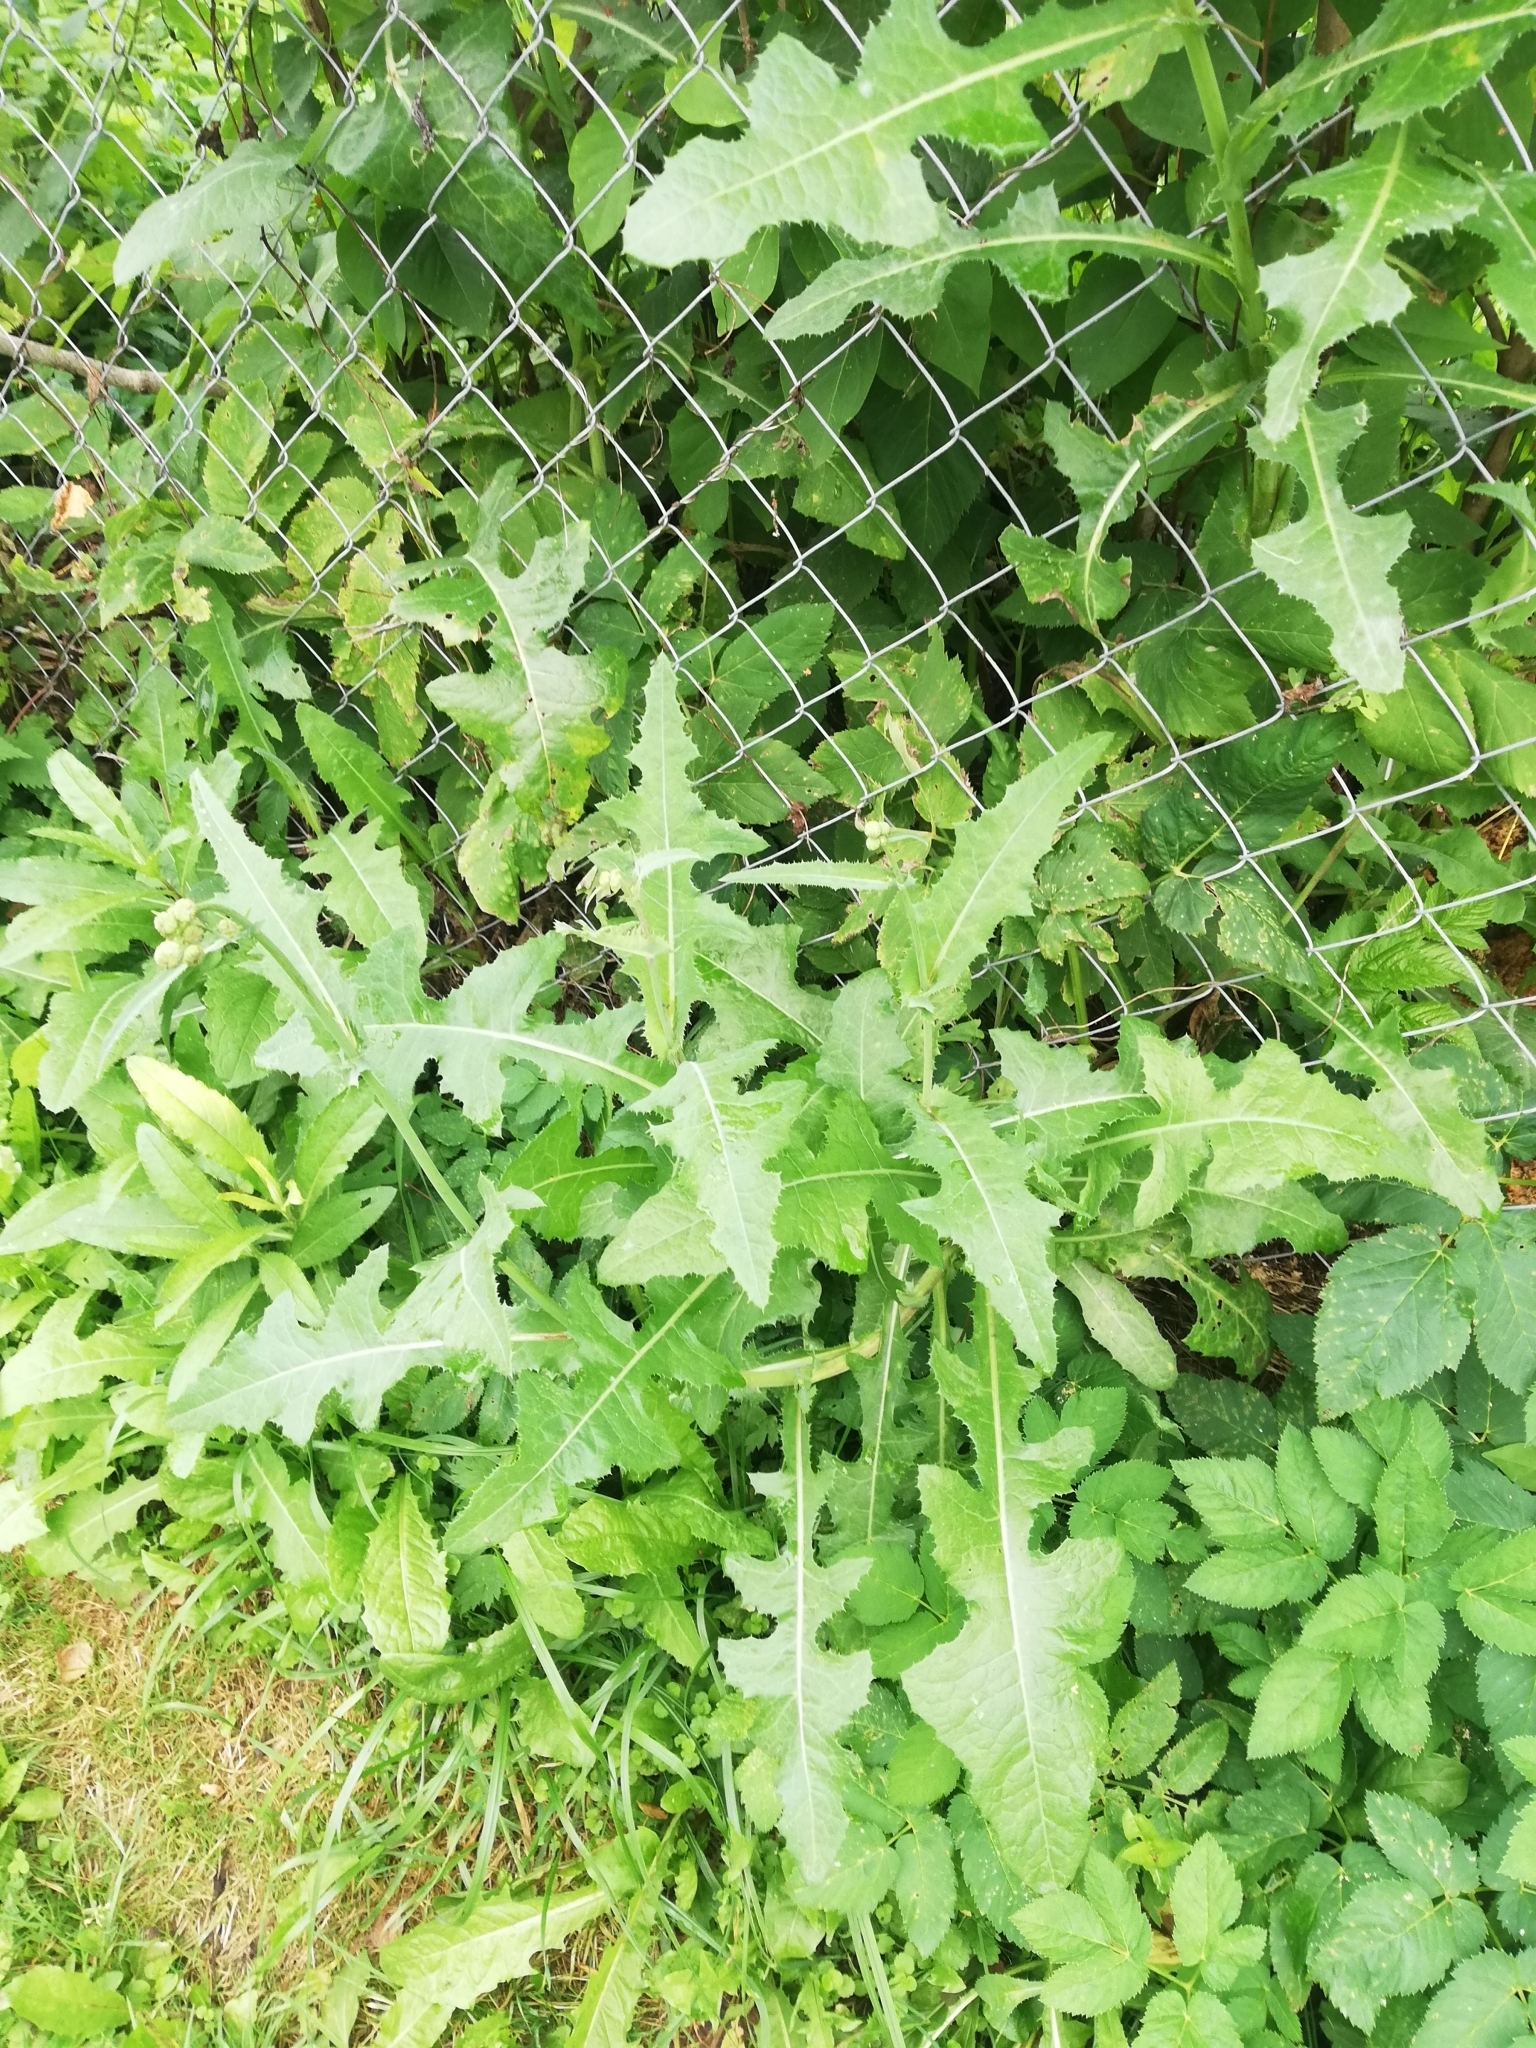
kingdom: Plantae
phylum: Tracheophyta
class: Magnoliopsida
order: Asterales
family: Asteraceae
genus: Sonchus
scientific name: Sonchus arvensis
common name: Perennial sow-thistle
